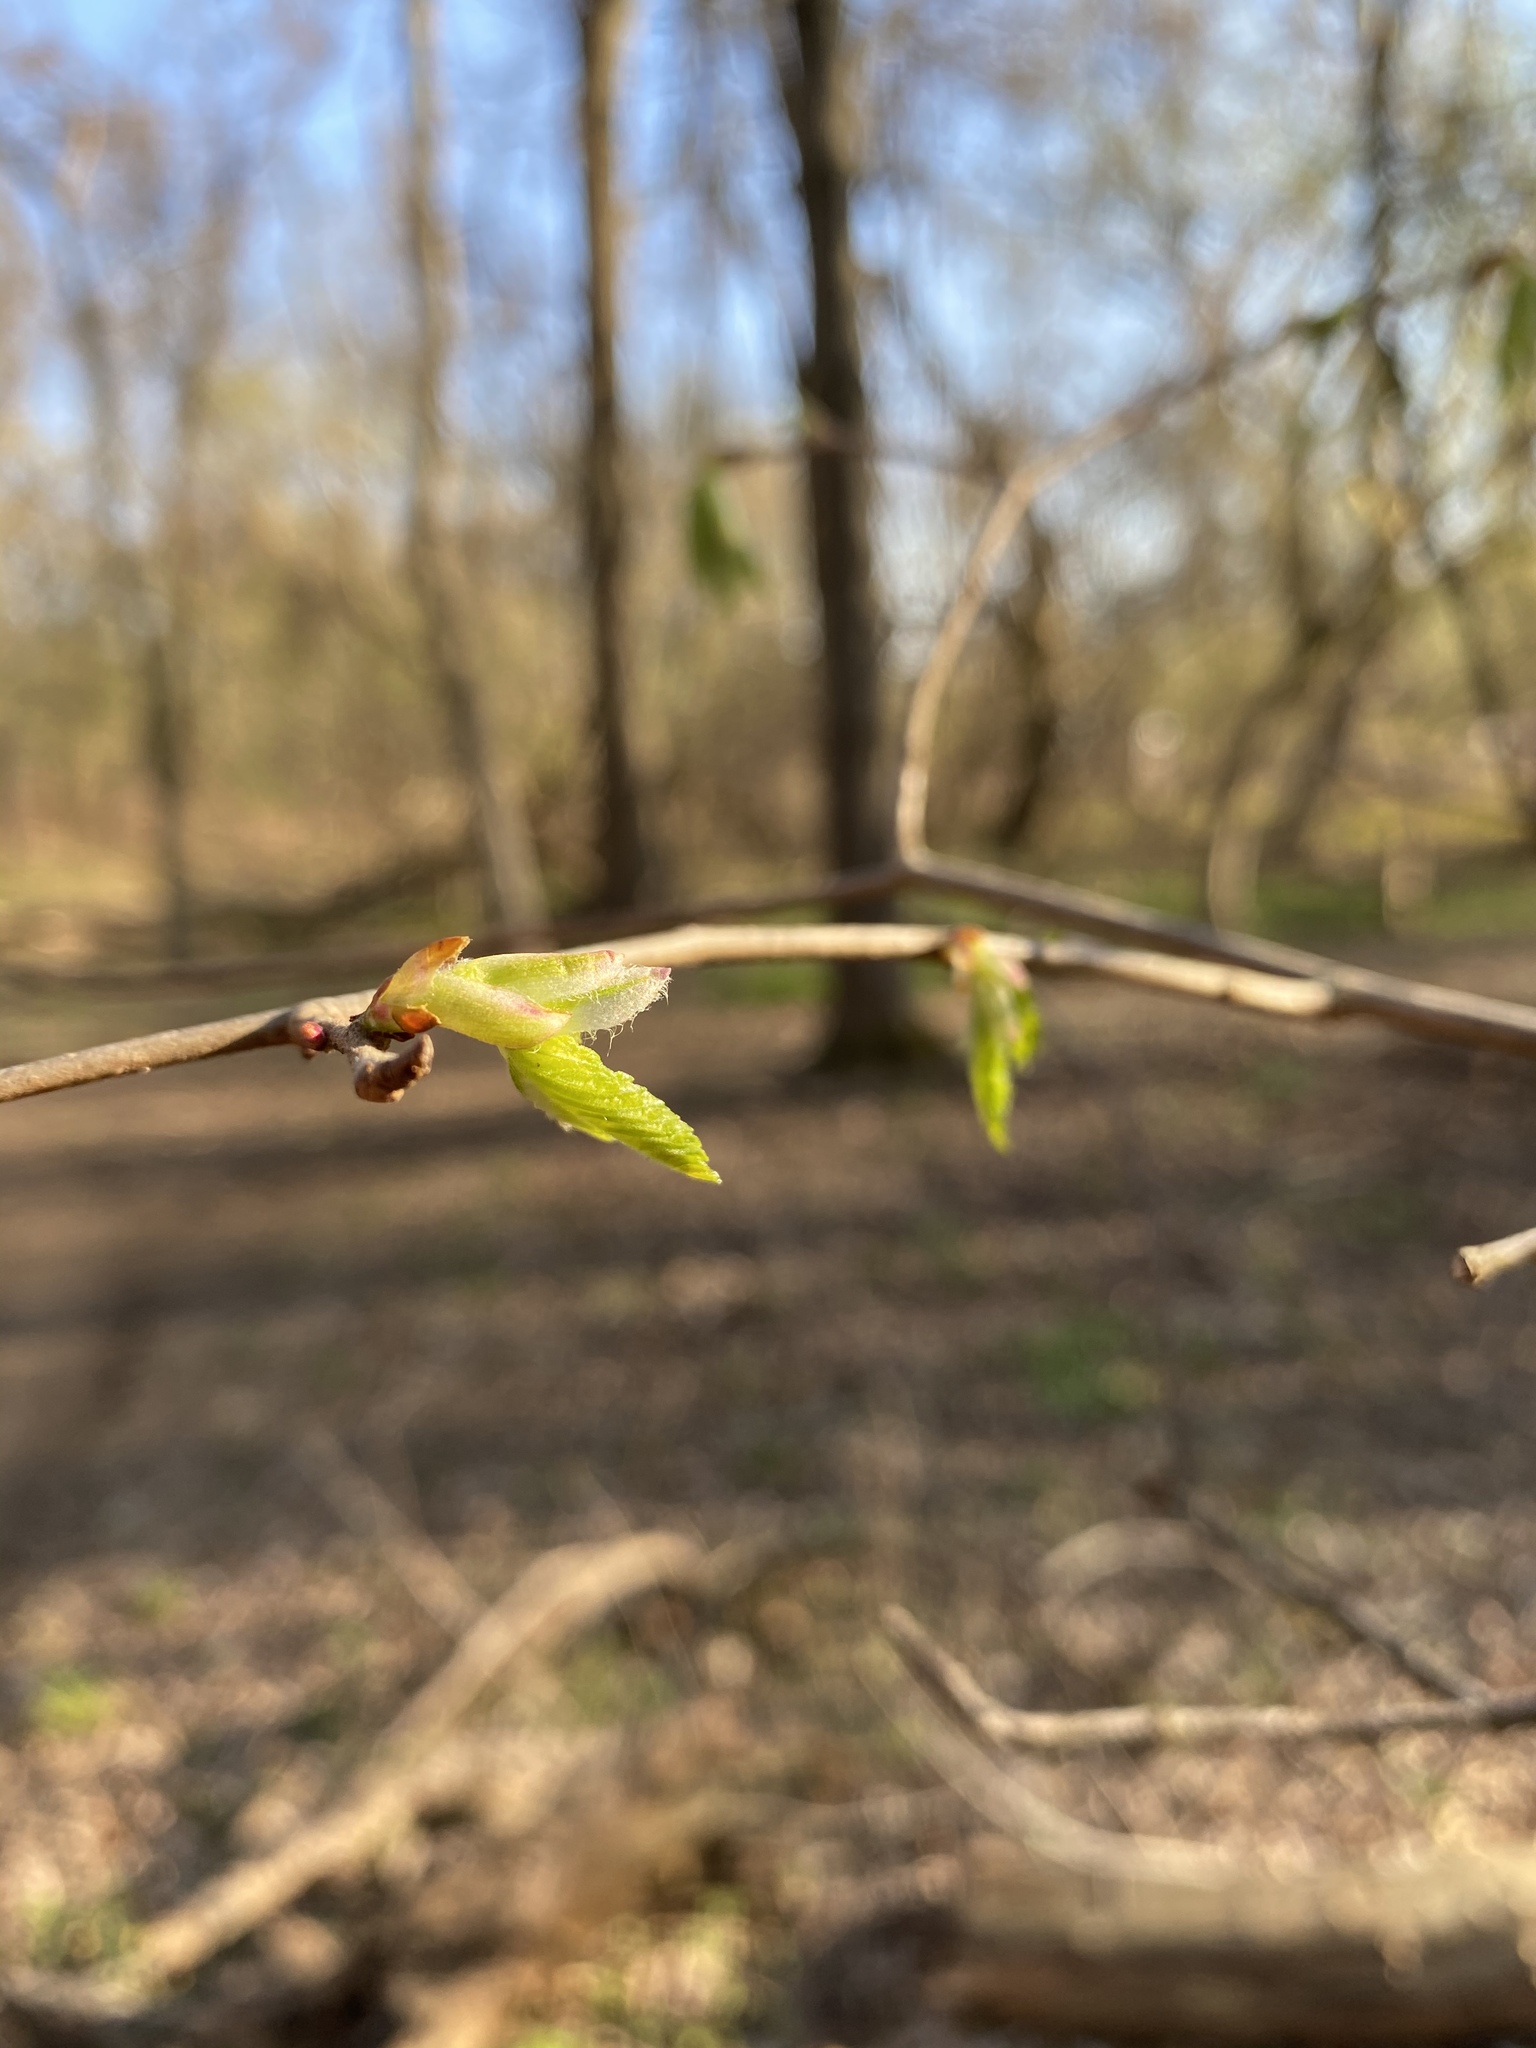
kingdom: Plantae
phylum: Tracheophyta
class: Magnoliopsida
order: Rosales
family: Ulmaceae
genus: Ulmus
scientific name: Ulmus americana
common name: American elm
